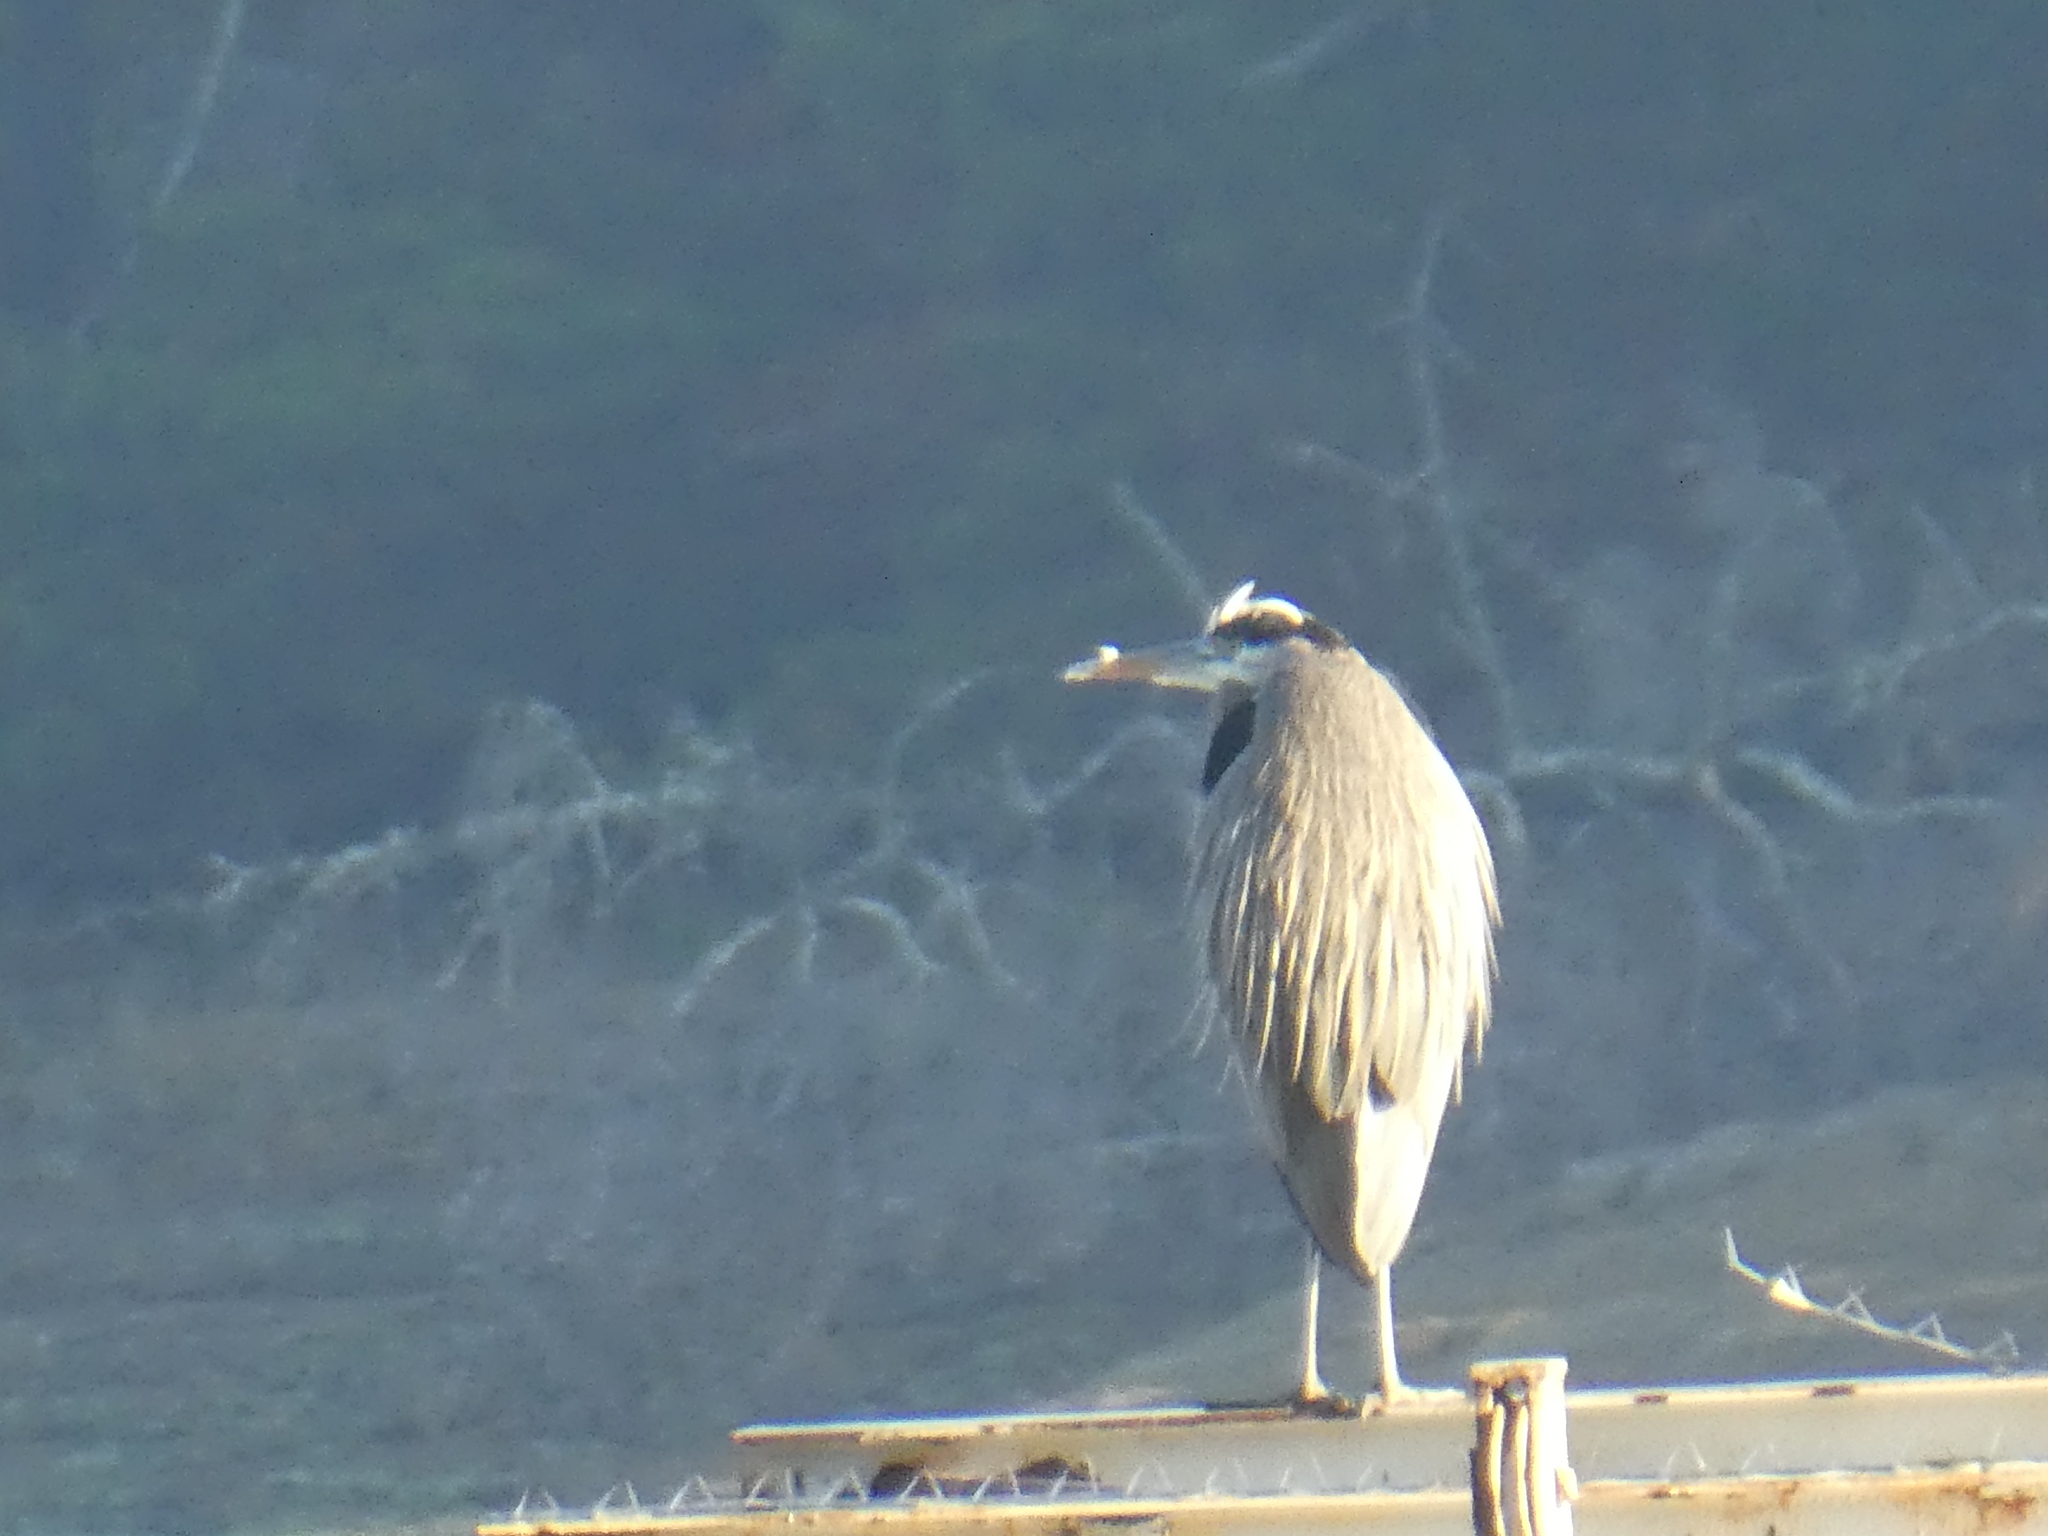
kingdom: Animalia
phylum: Chordata
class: Aves
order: Pelecaniformes
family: Ardeidae
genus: Ardea
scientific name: Ardea herodias
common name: Great blue heron
